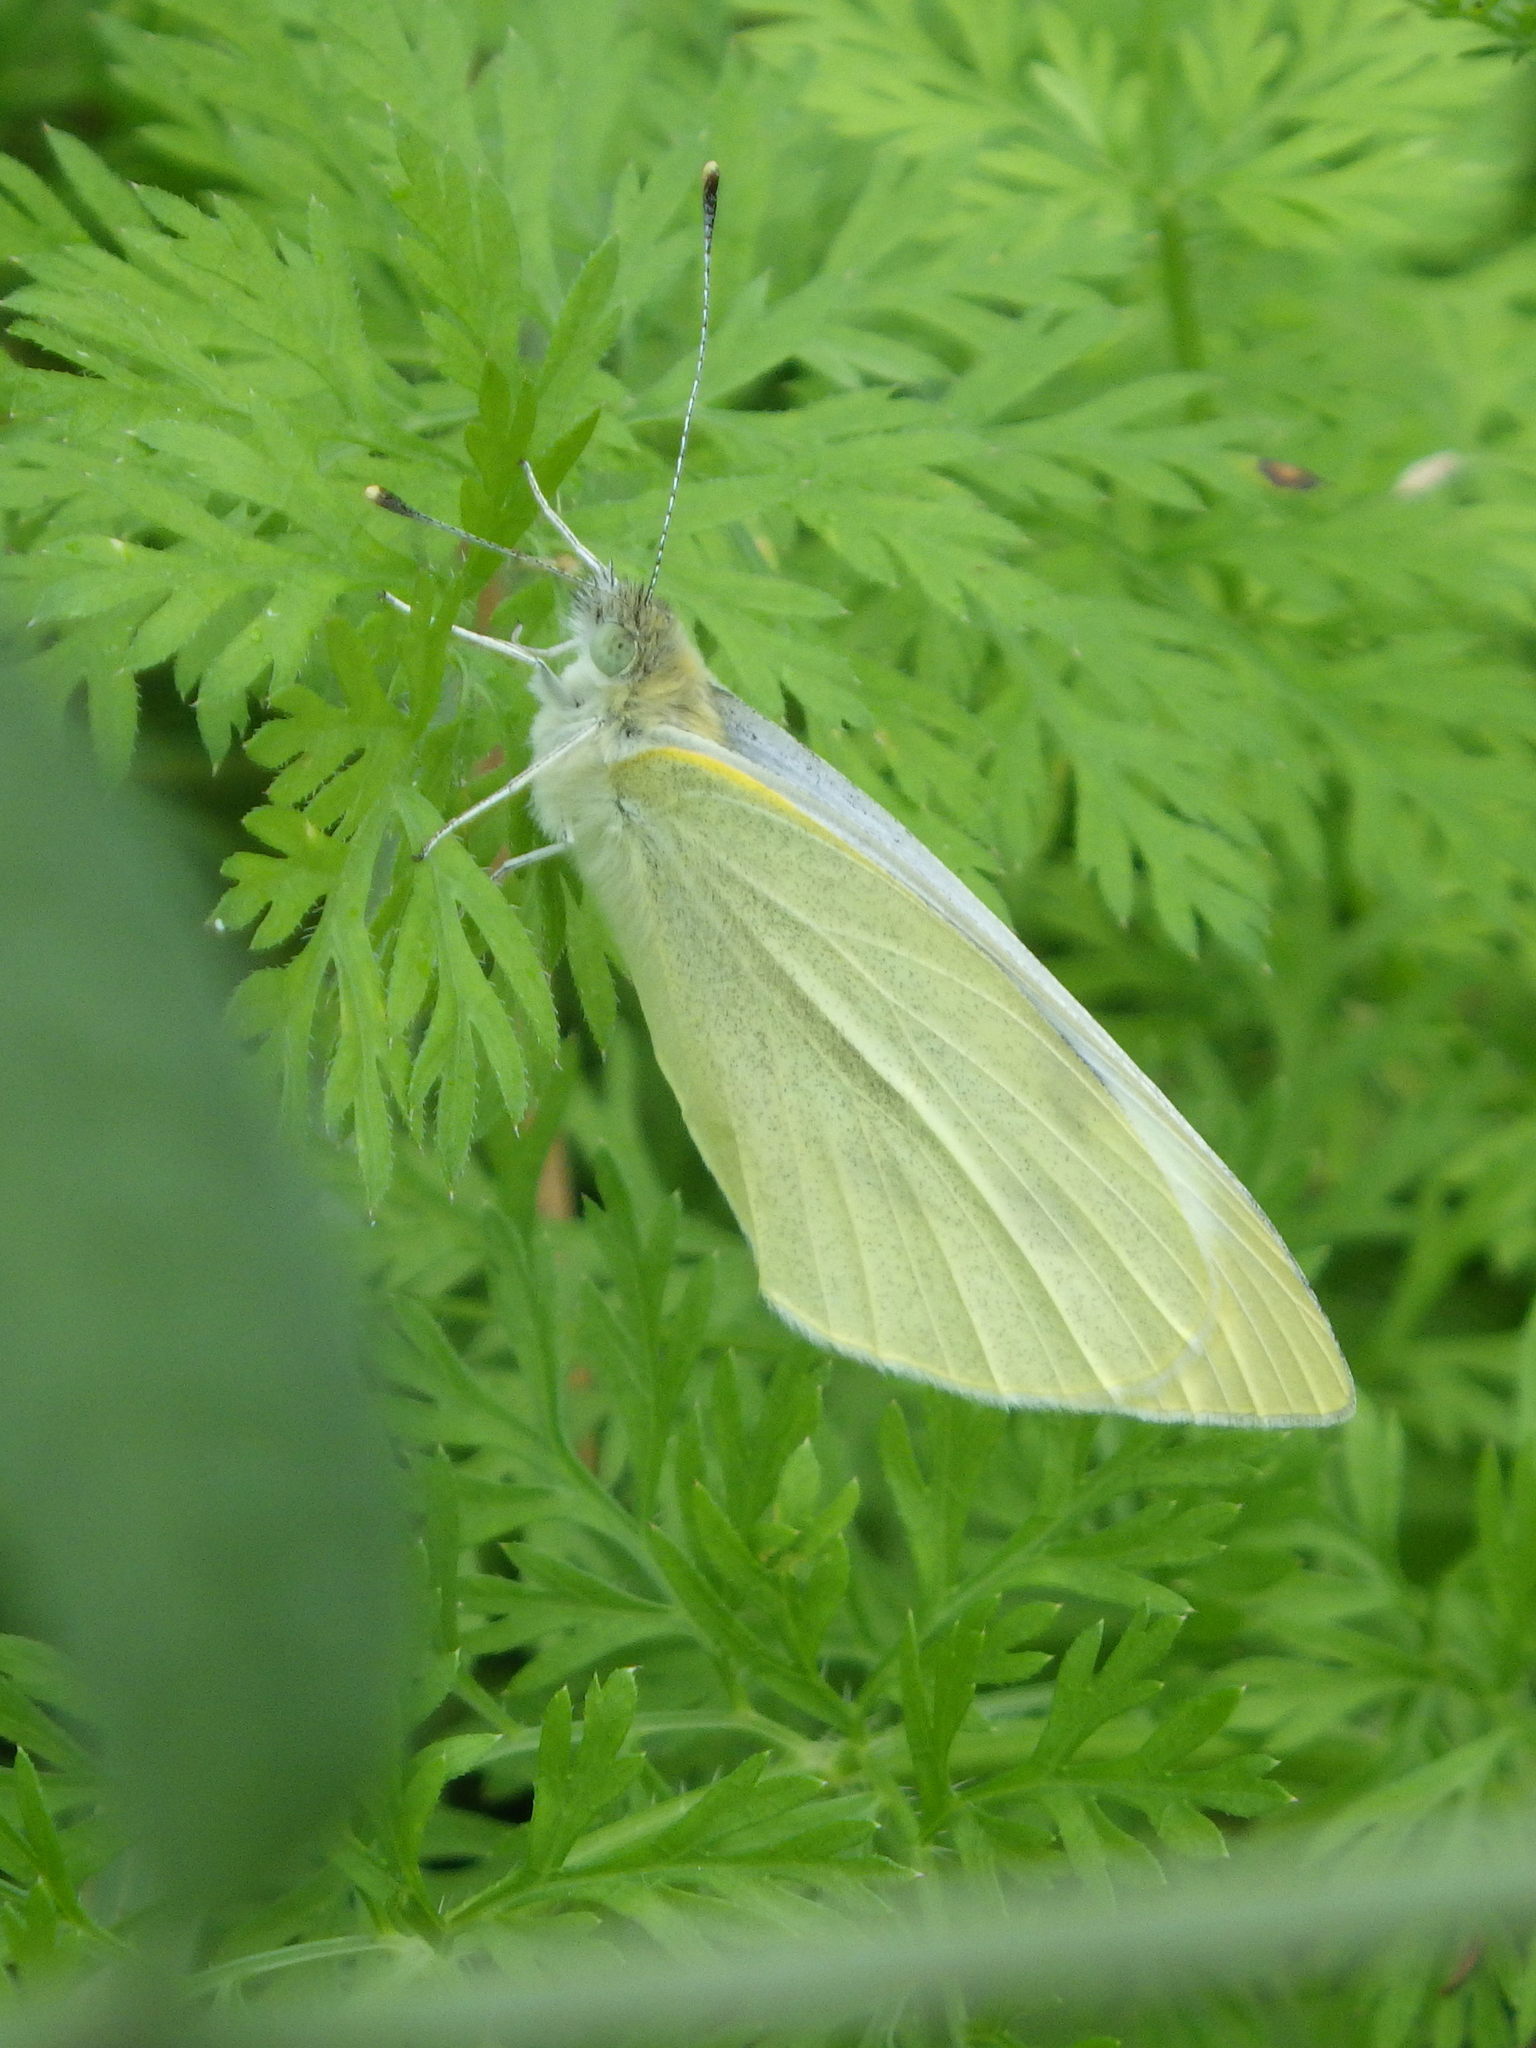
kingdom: Animalia
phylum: Arthropoda
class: Insecta
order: Lepidoptera
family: Pieridae
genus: Pieris
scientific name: Pieris rapae
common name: Small white
